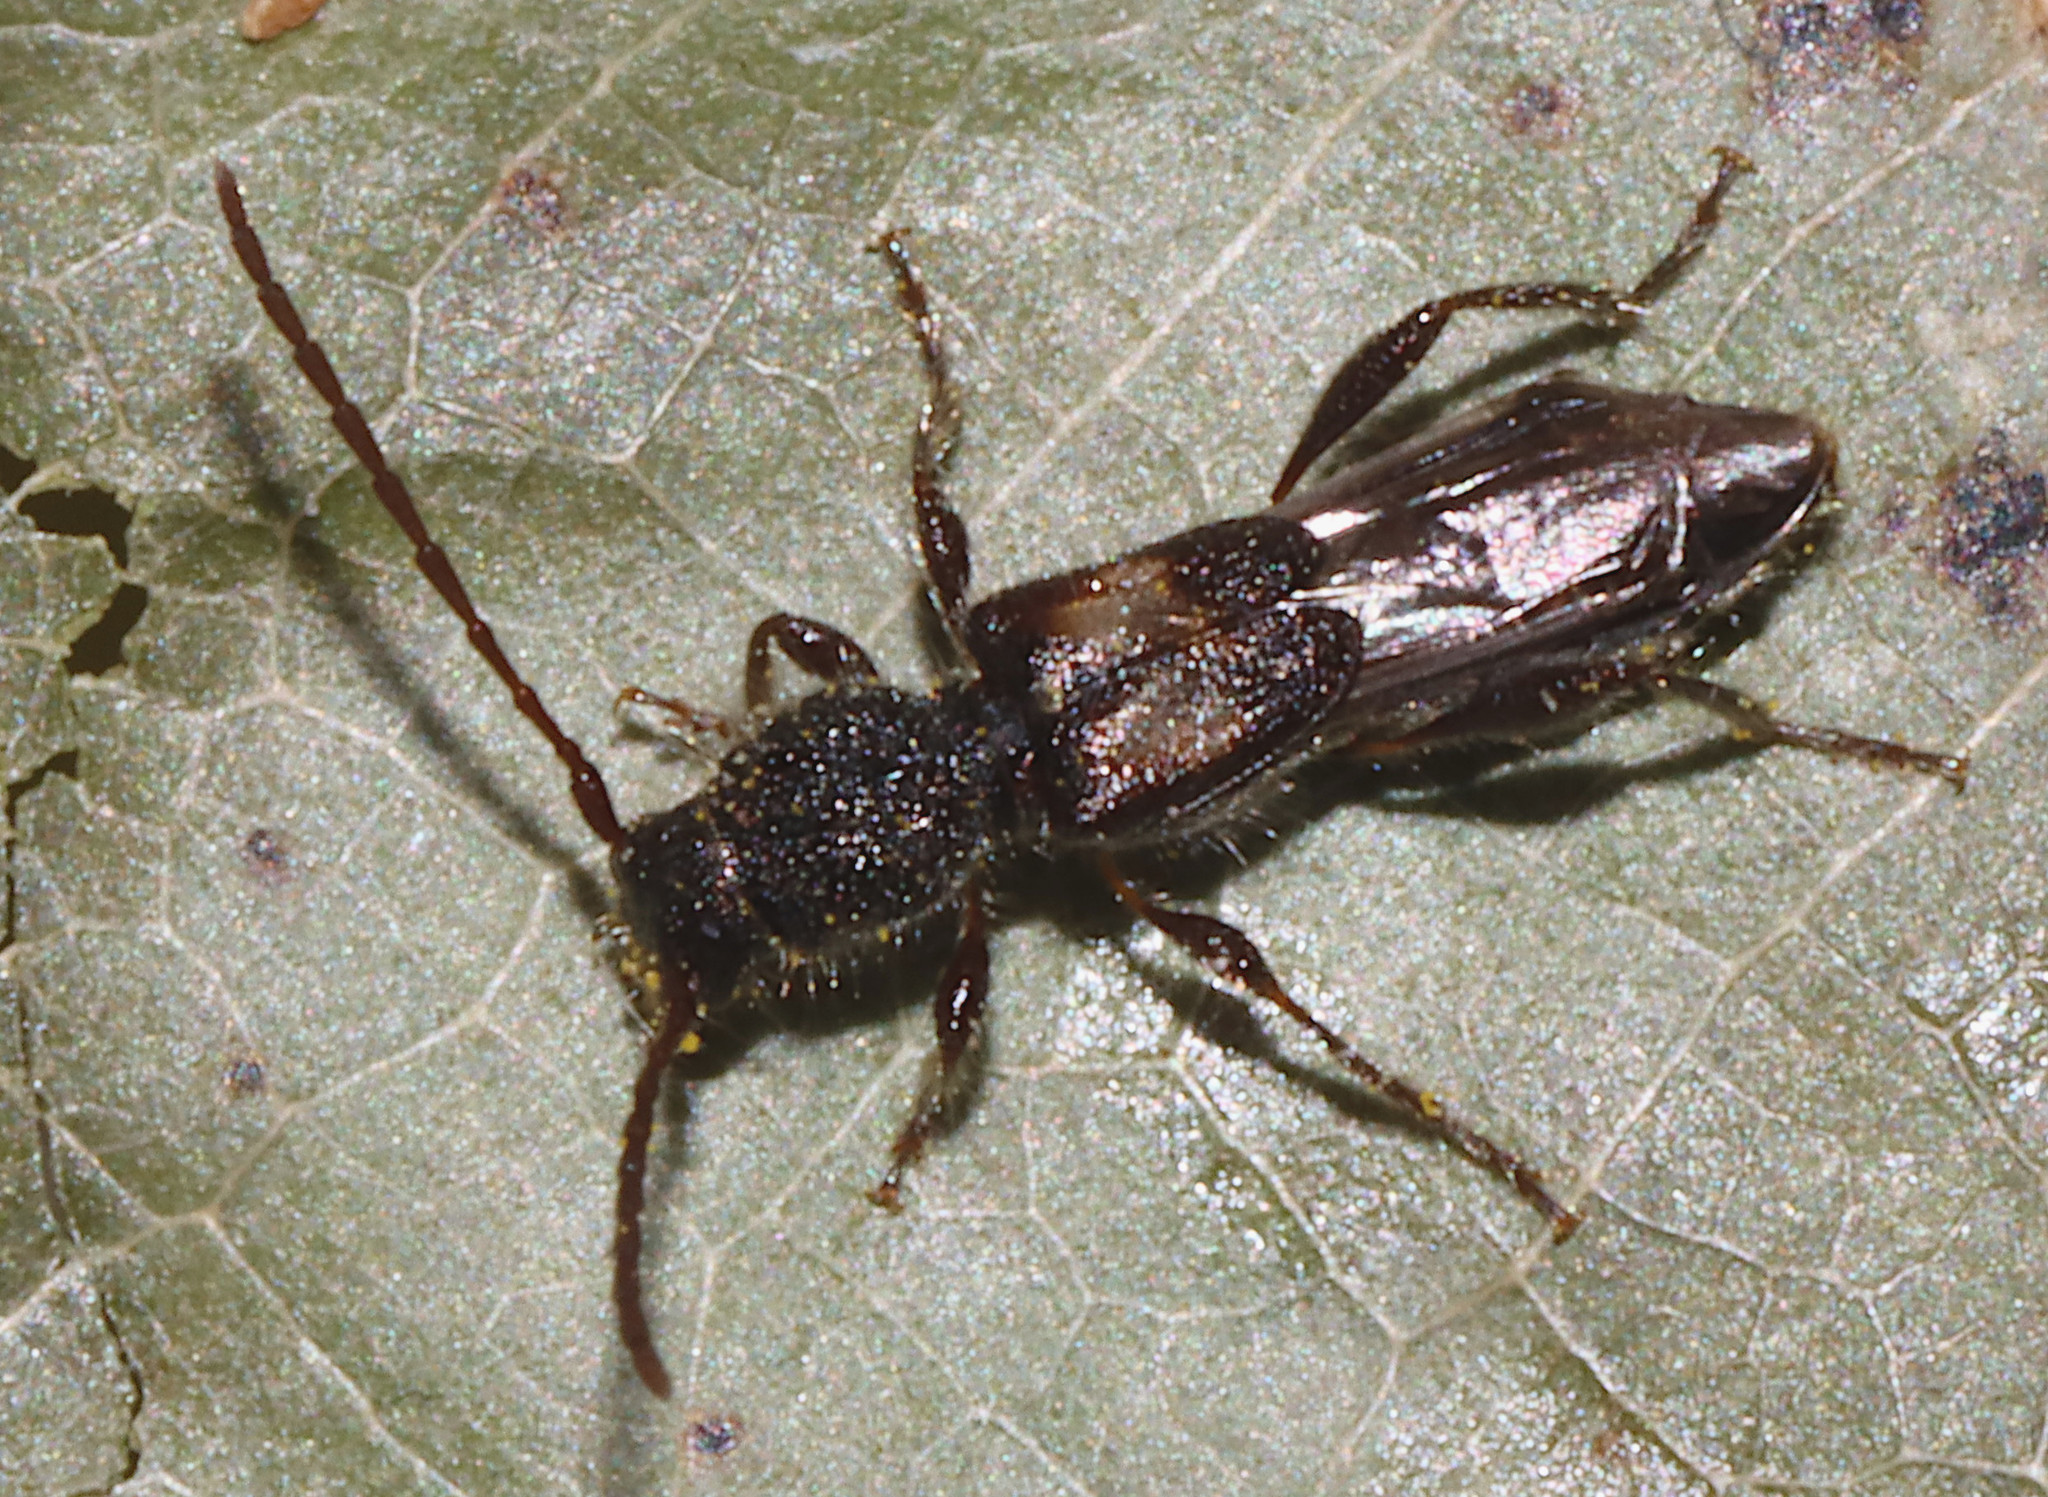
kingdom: Animalia
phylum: Arthropoda
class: Insecta
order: Coleoptera
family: Cerambycidae
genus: Molorchus
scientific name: Molorchus bimaculatus
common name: Bimaculate longhorn beetle
